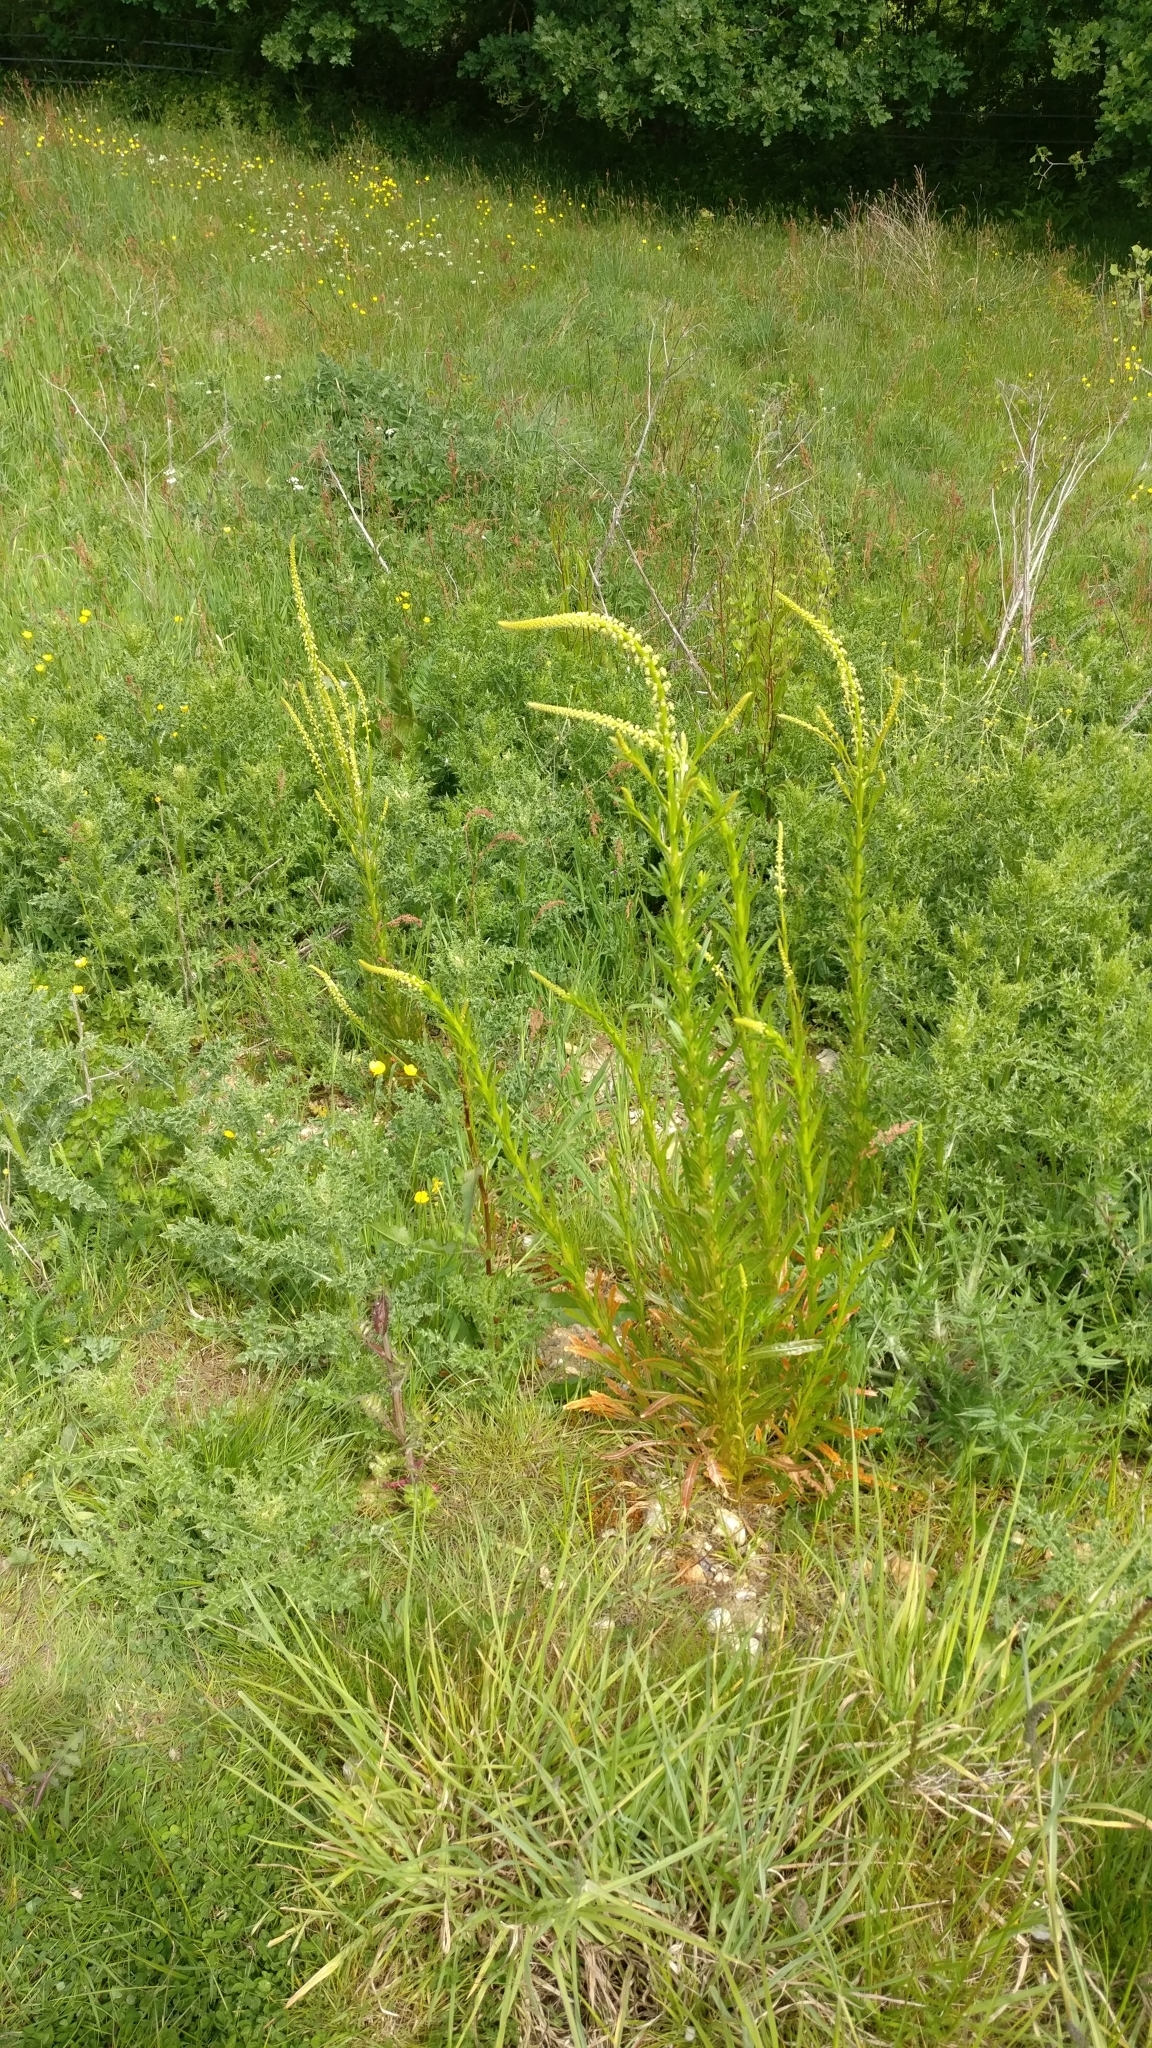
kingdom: Plantae
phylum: Tracheophyta
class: Magnoliopsida
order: Brassicales
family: Resedaceae
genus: Reseda
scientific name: Reseda luteola
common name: Weld
